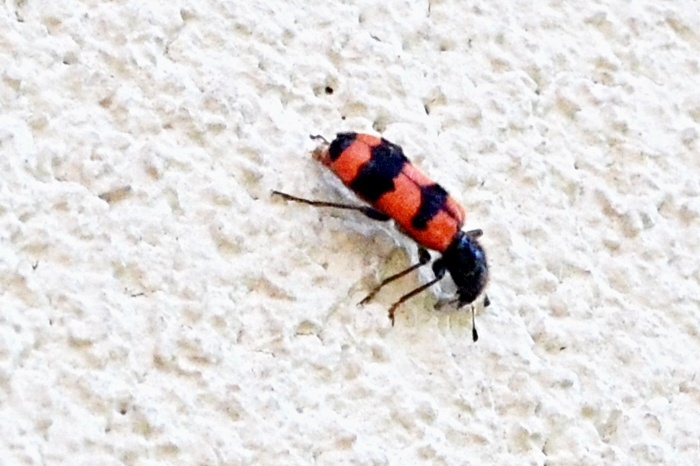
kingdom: Animalia
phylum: Arthropoda
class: Insecta
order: Coleoptera
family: Cleridae
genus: Trichodes
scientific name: Trichodes apiarius
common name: Bee-eating beetle
